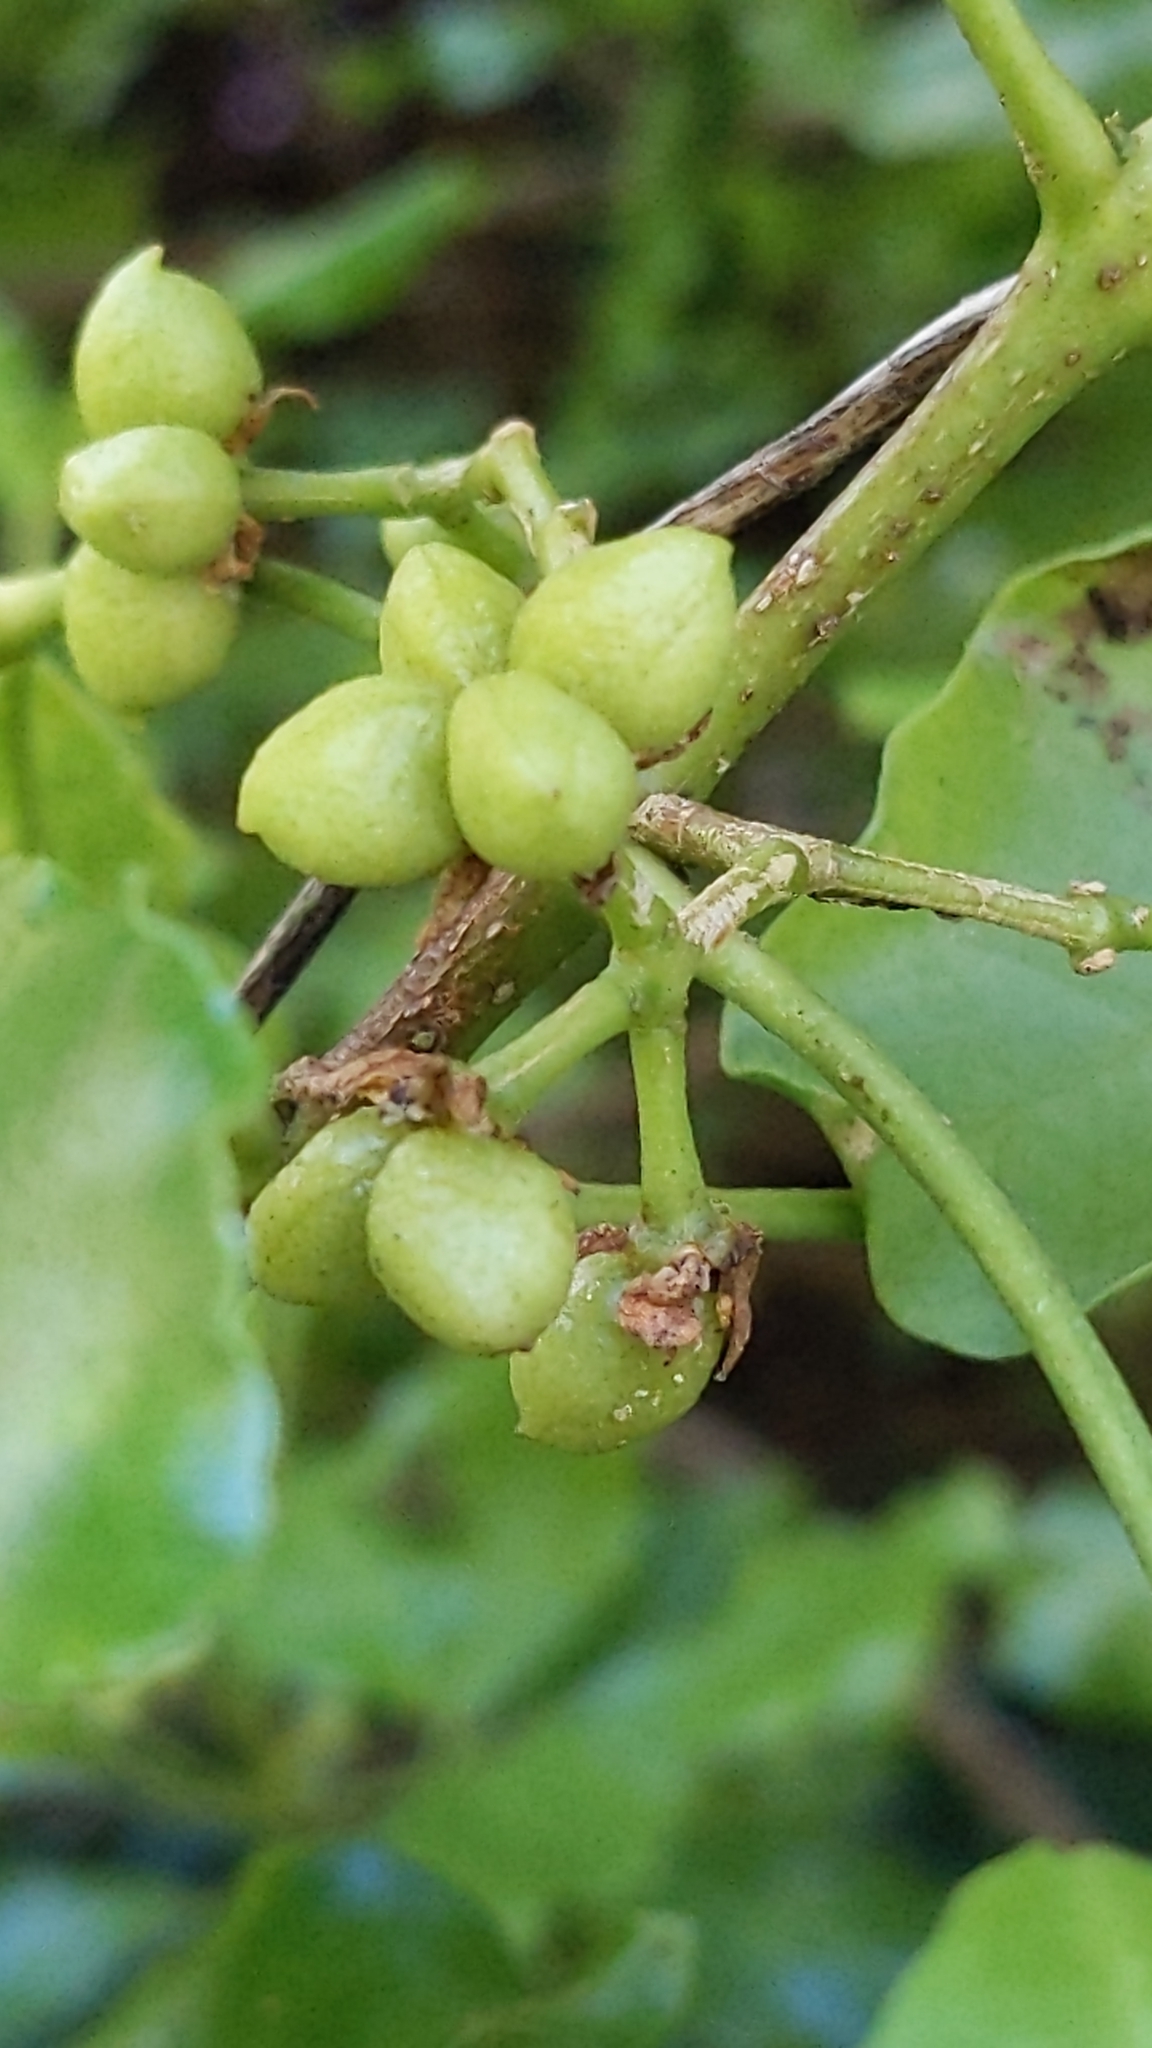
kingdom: Plantae
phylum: Tracheophyta
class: Magnoliopsida
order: Sapindales
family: Rutaceae
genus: Melicope
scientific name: Melicope ternata
